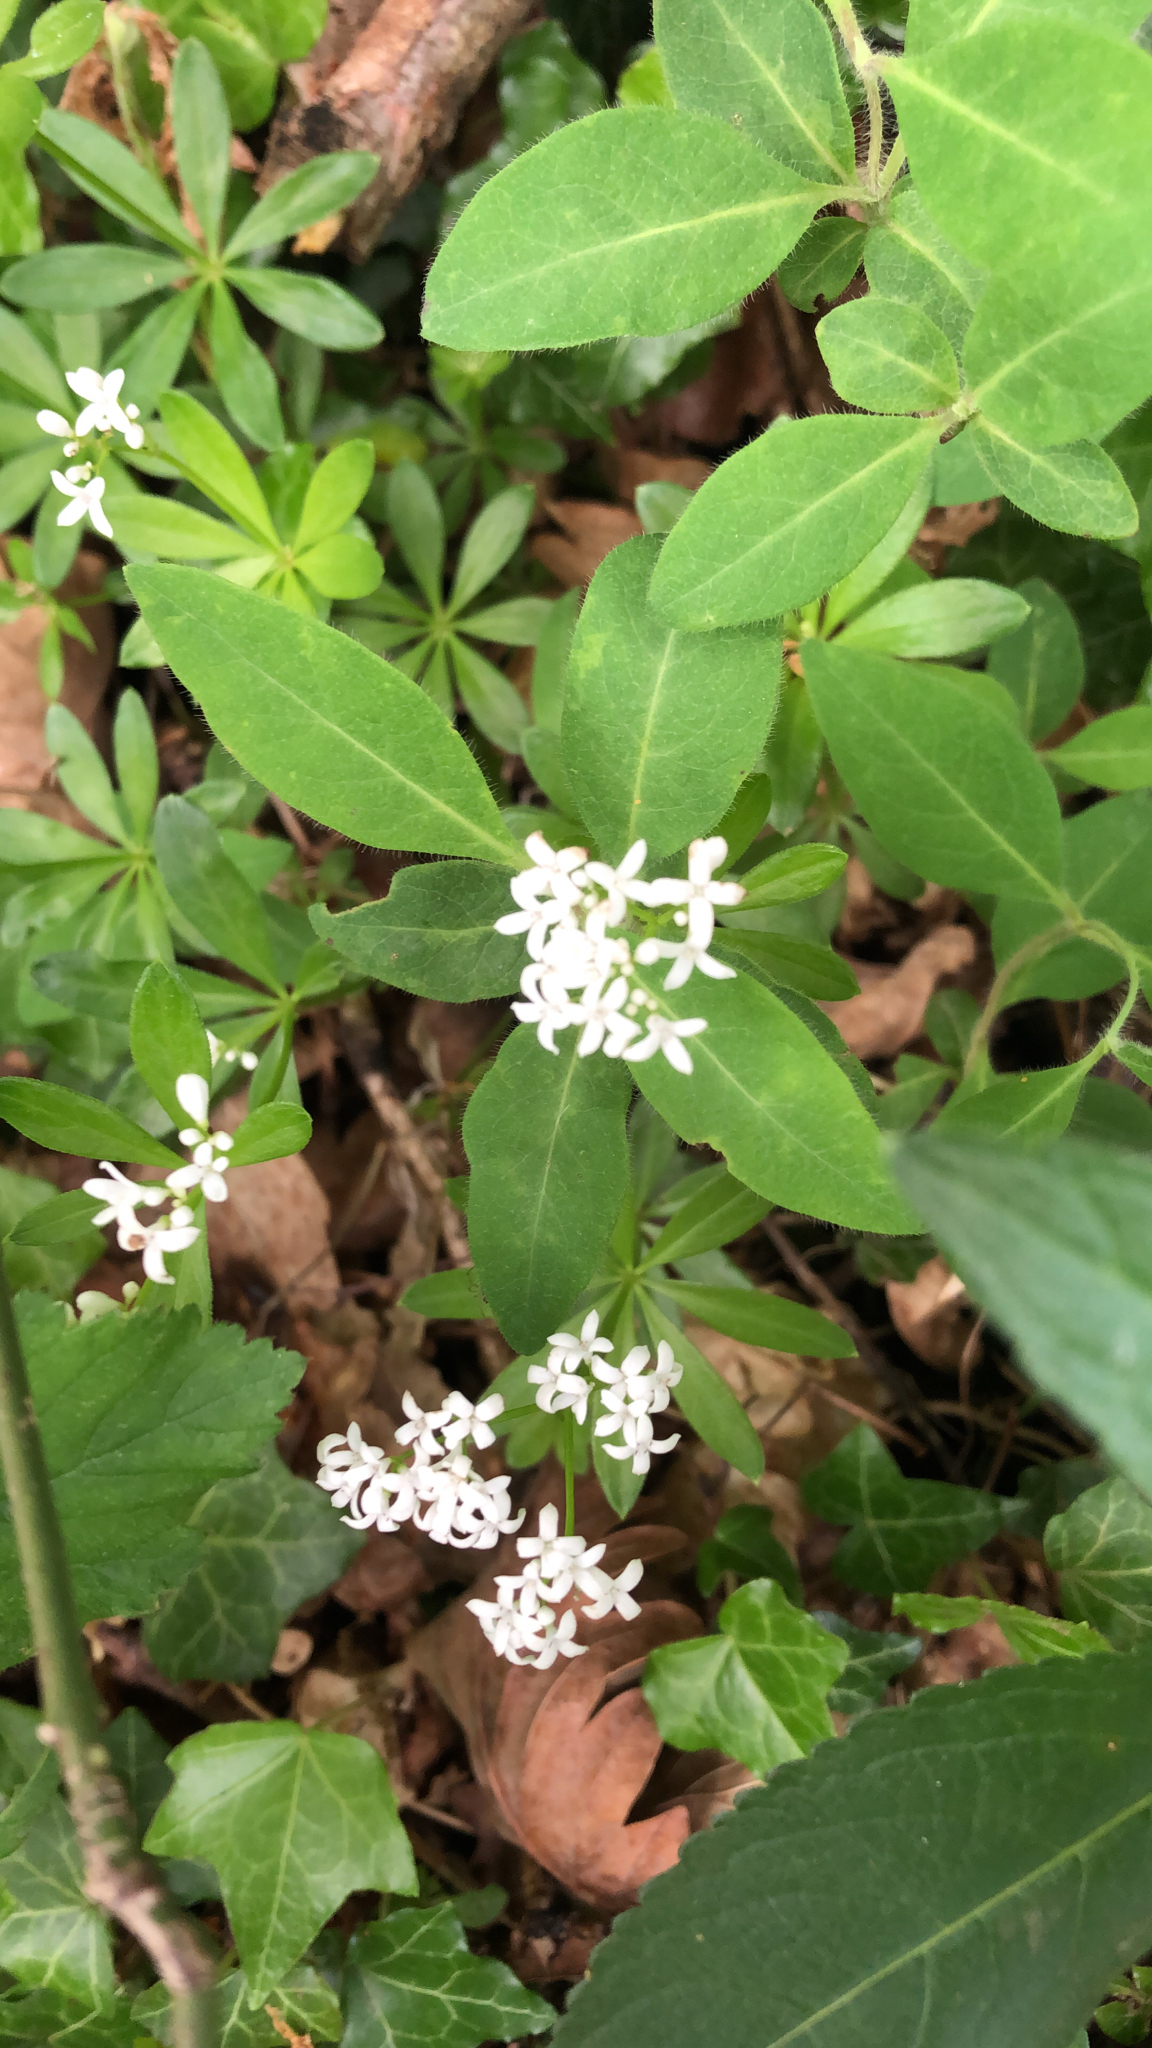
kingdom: Plantae
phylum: Tracheophyta
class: Magnoliopsida
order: Gentianales
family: Rubiaceae
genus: Galium
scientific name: Galium odoratum
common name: Sweet woodruff
